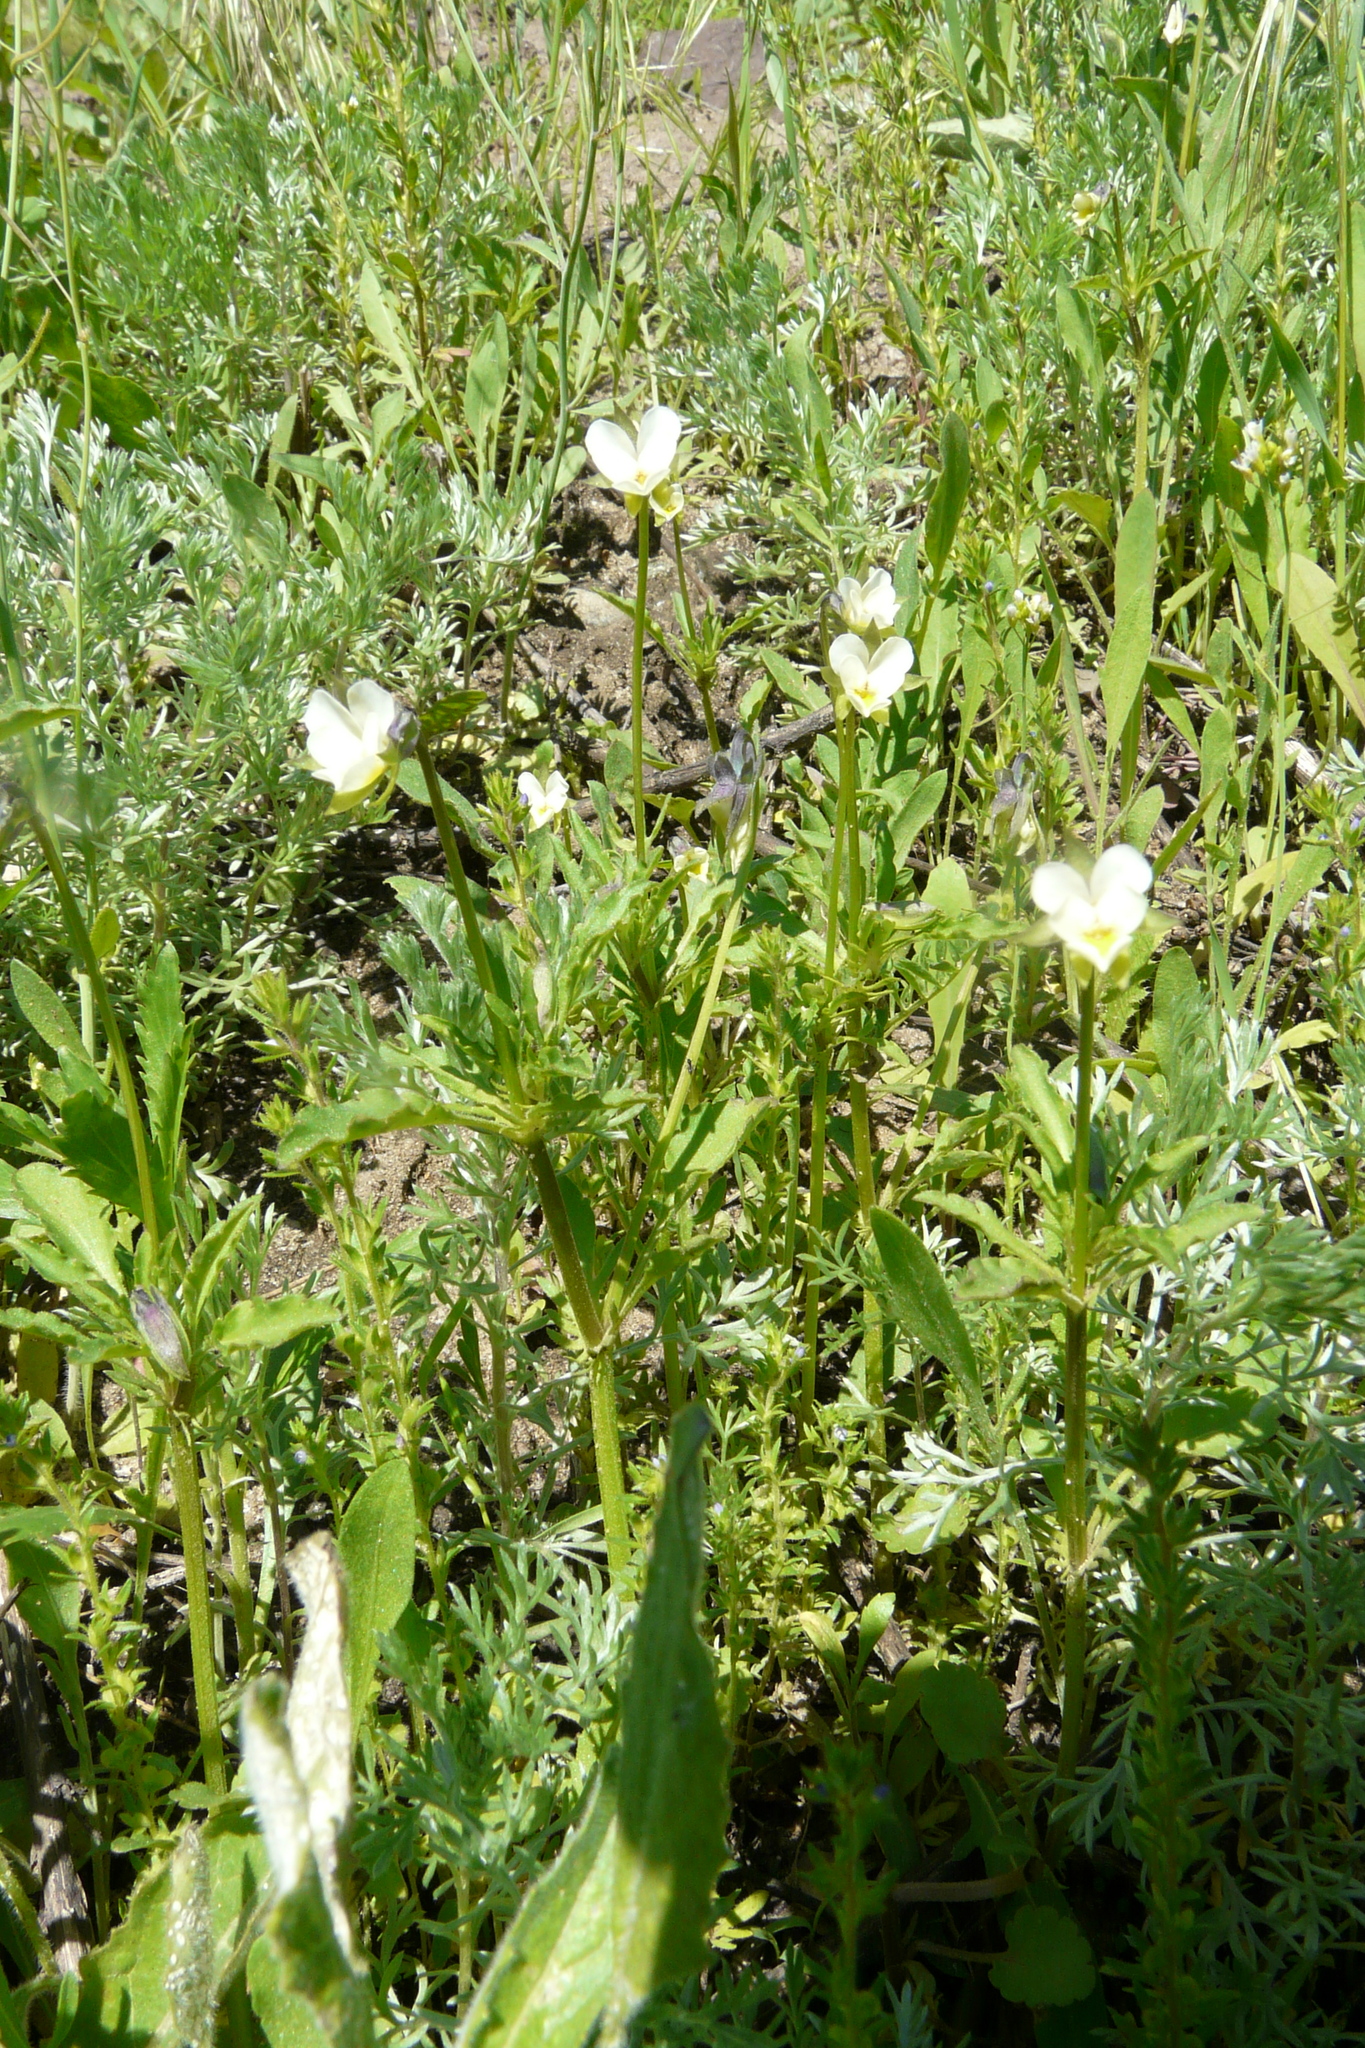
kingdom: Plantae
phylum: Tracheophyta
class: Magnoliopsida
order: Malpighiales
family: Violaceae
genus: Viola
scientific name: Viola arvensis
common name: Field pansy
